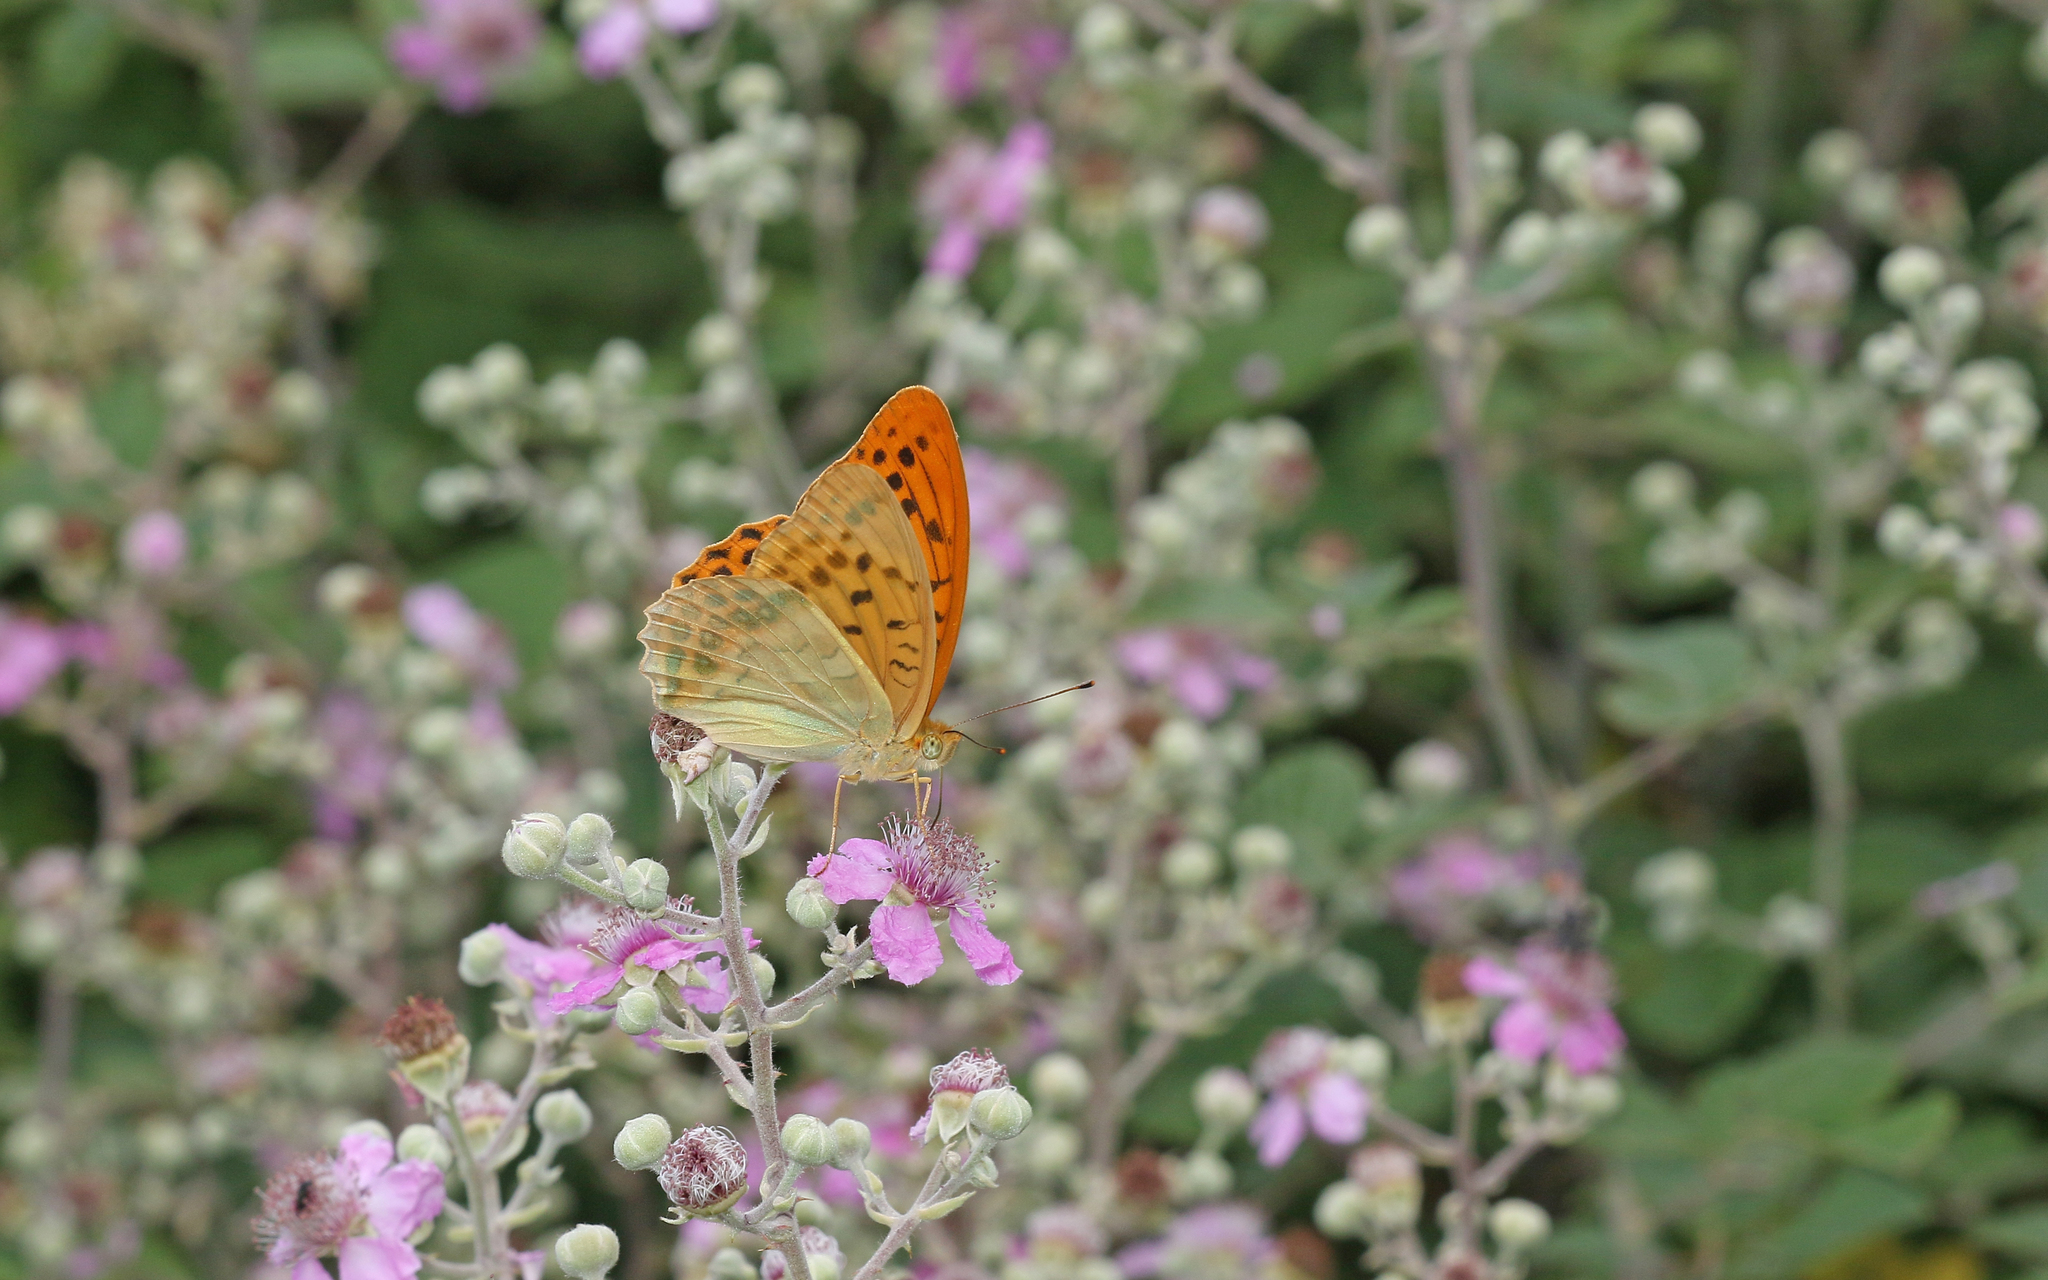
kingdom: Animalia
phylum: Arthropoda
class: Insecta
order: Lepidoptera
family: Nymphalidae
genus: Argynnis
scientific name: Argynnis paphia
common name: Silver-washed fritillary
